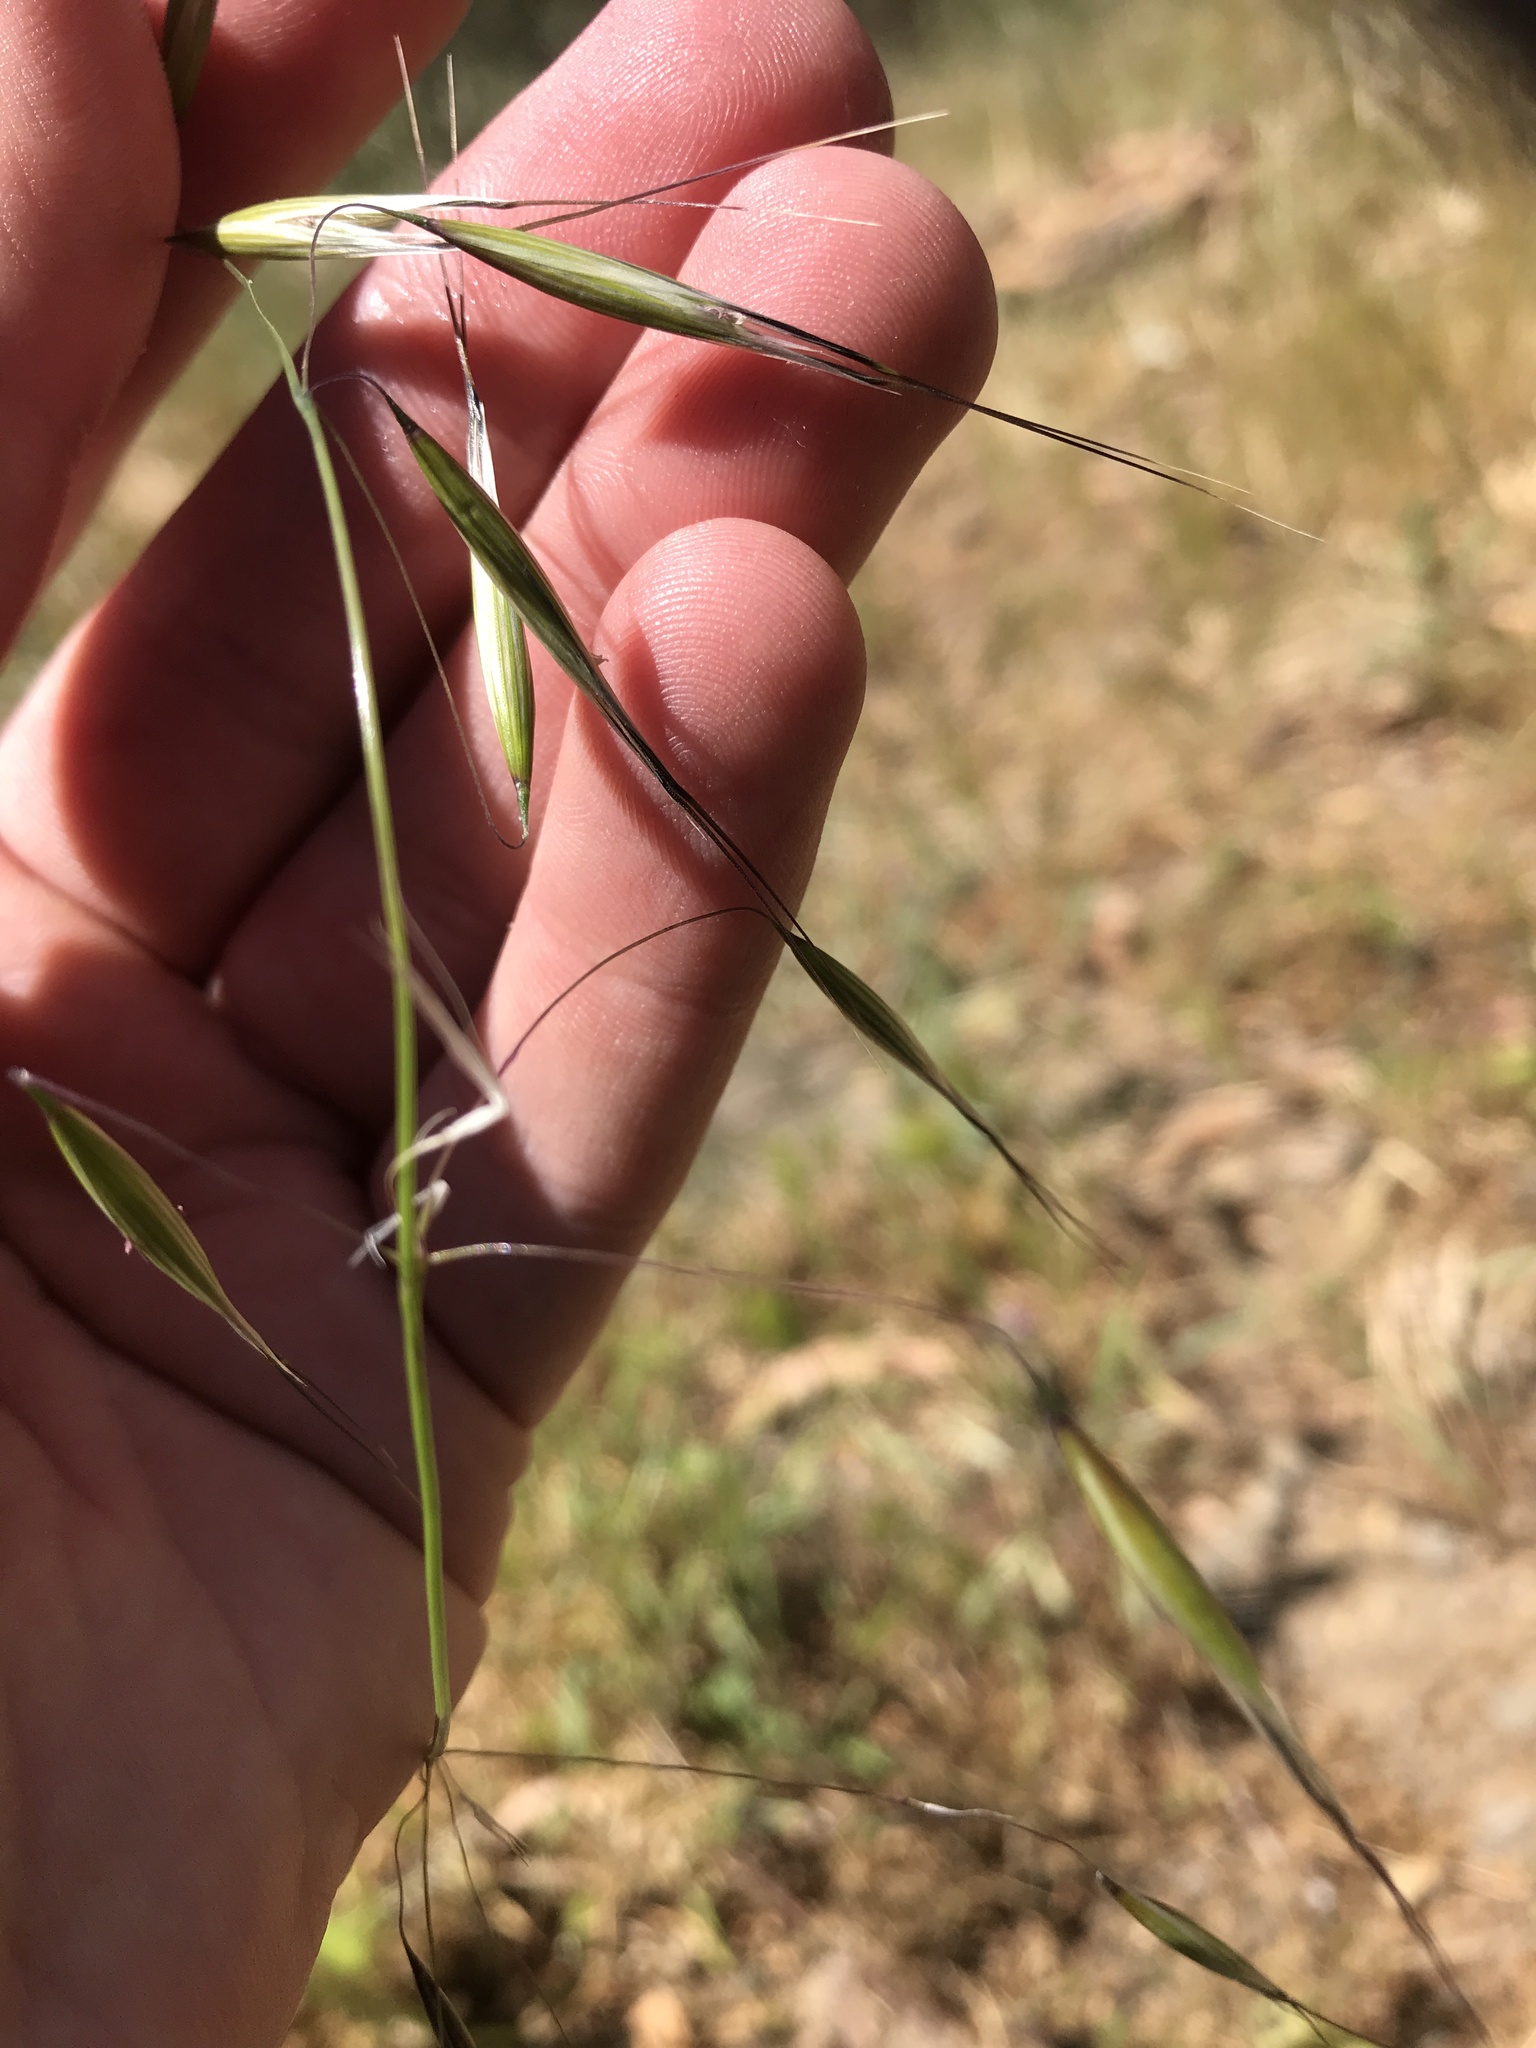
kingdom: Plantae
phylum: Tracheophyta
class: Liliopsida
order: Poales
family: Poaceae
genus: Avena
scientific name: Avena barbata
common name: Slender oat
